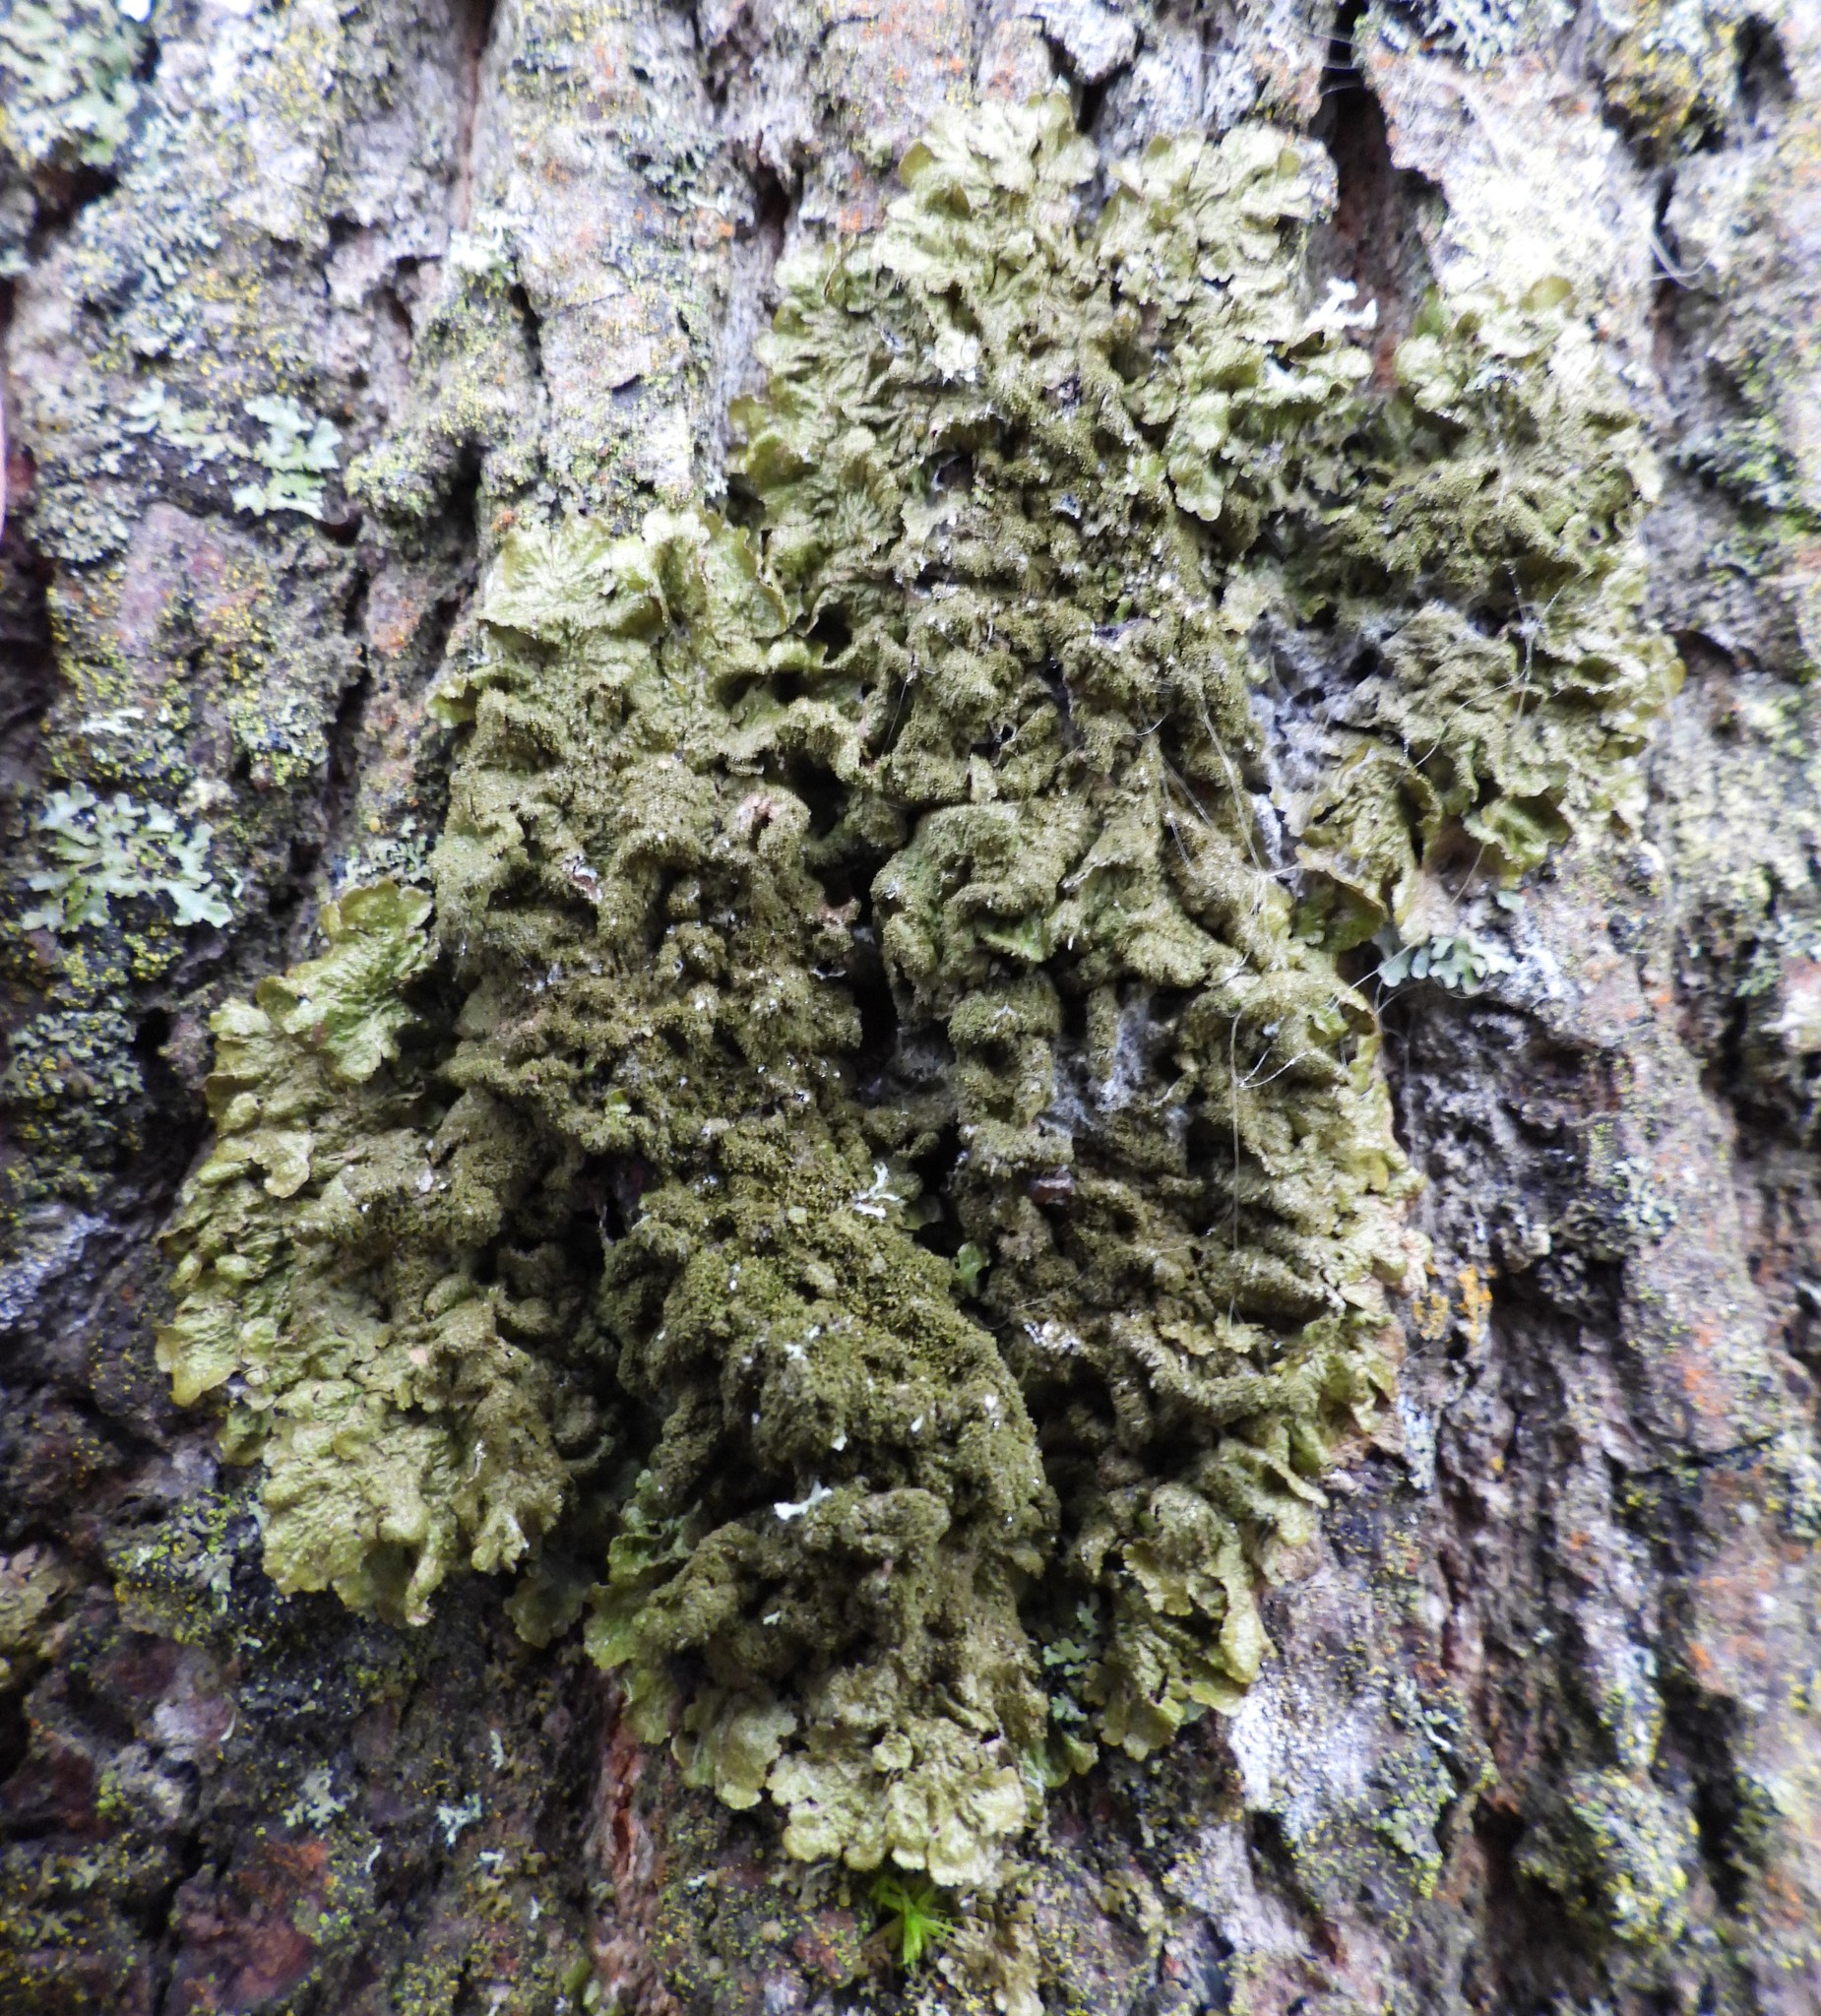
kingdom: Fungi
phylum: Ascomycota
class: Lecanoromycetes
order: Lecanorales
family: Parmeliaceae
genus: Melanelixia
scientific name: Melanelixia glabratula
